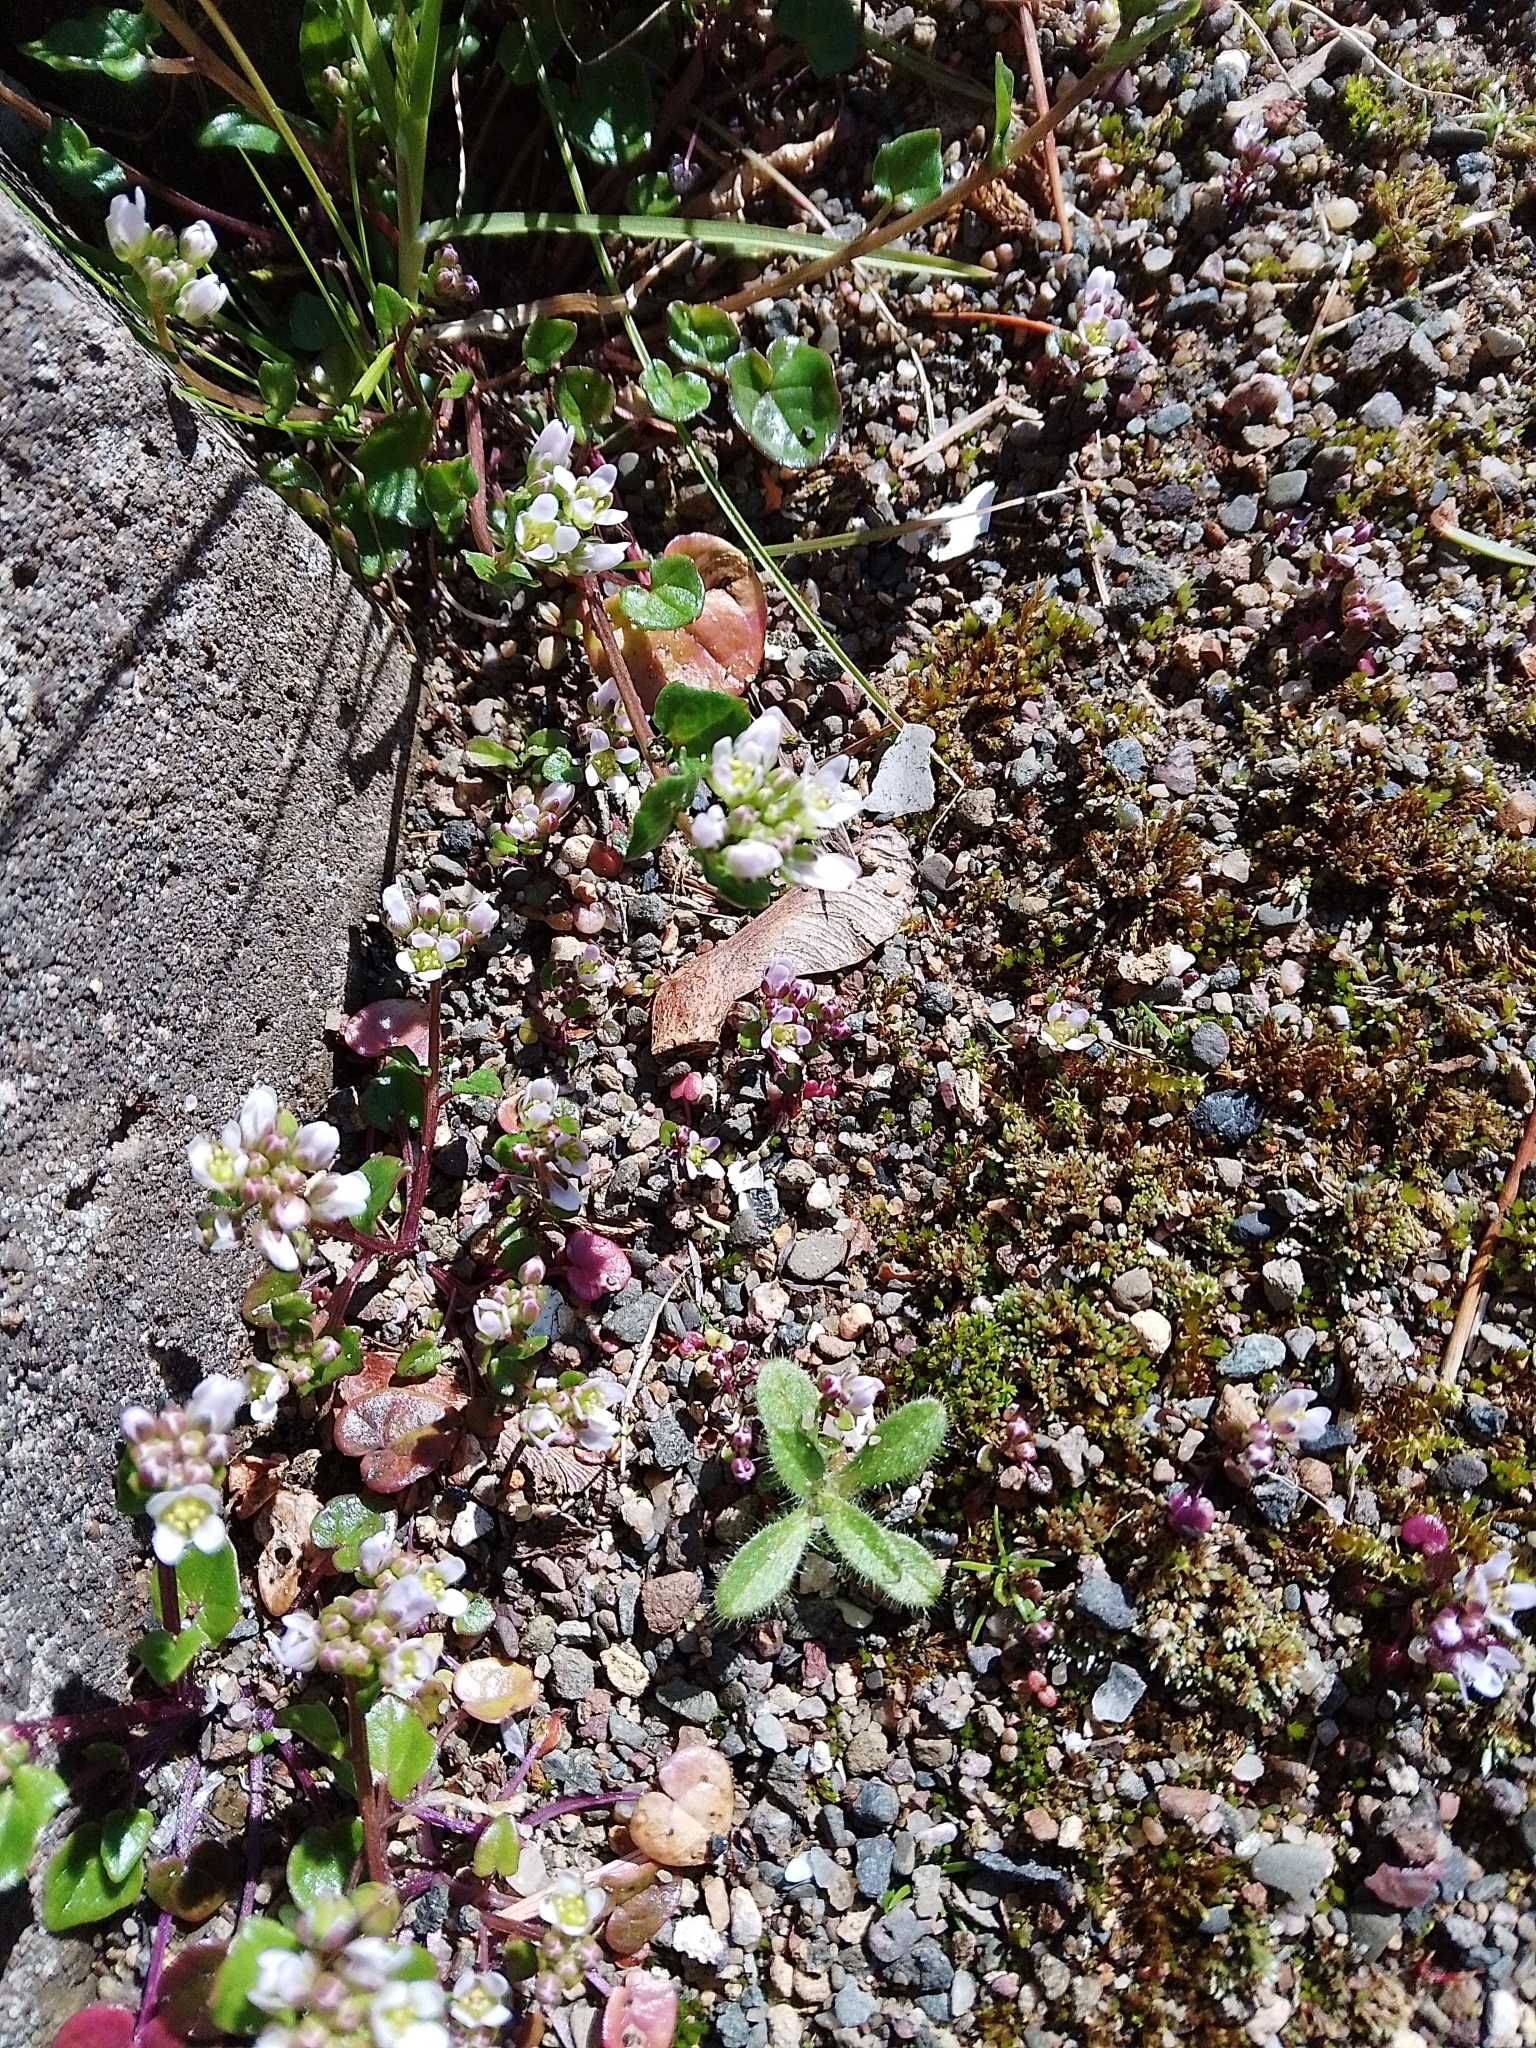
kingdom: Plantae
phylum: Tracheophyta
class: Magnoliopsida
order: Brassicales
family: Brassicaceae
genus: Cochlearia
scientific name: Cochlearia danica
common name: Early scurvygrass
